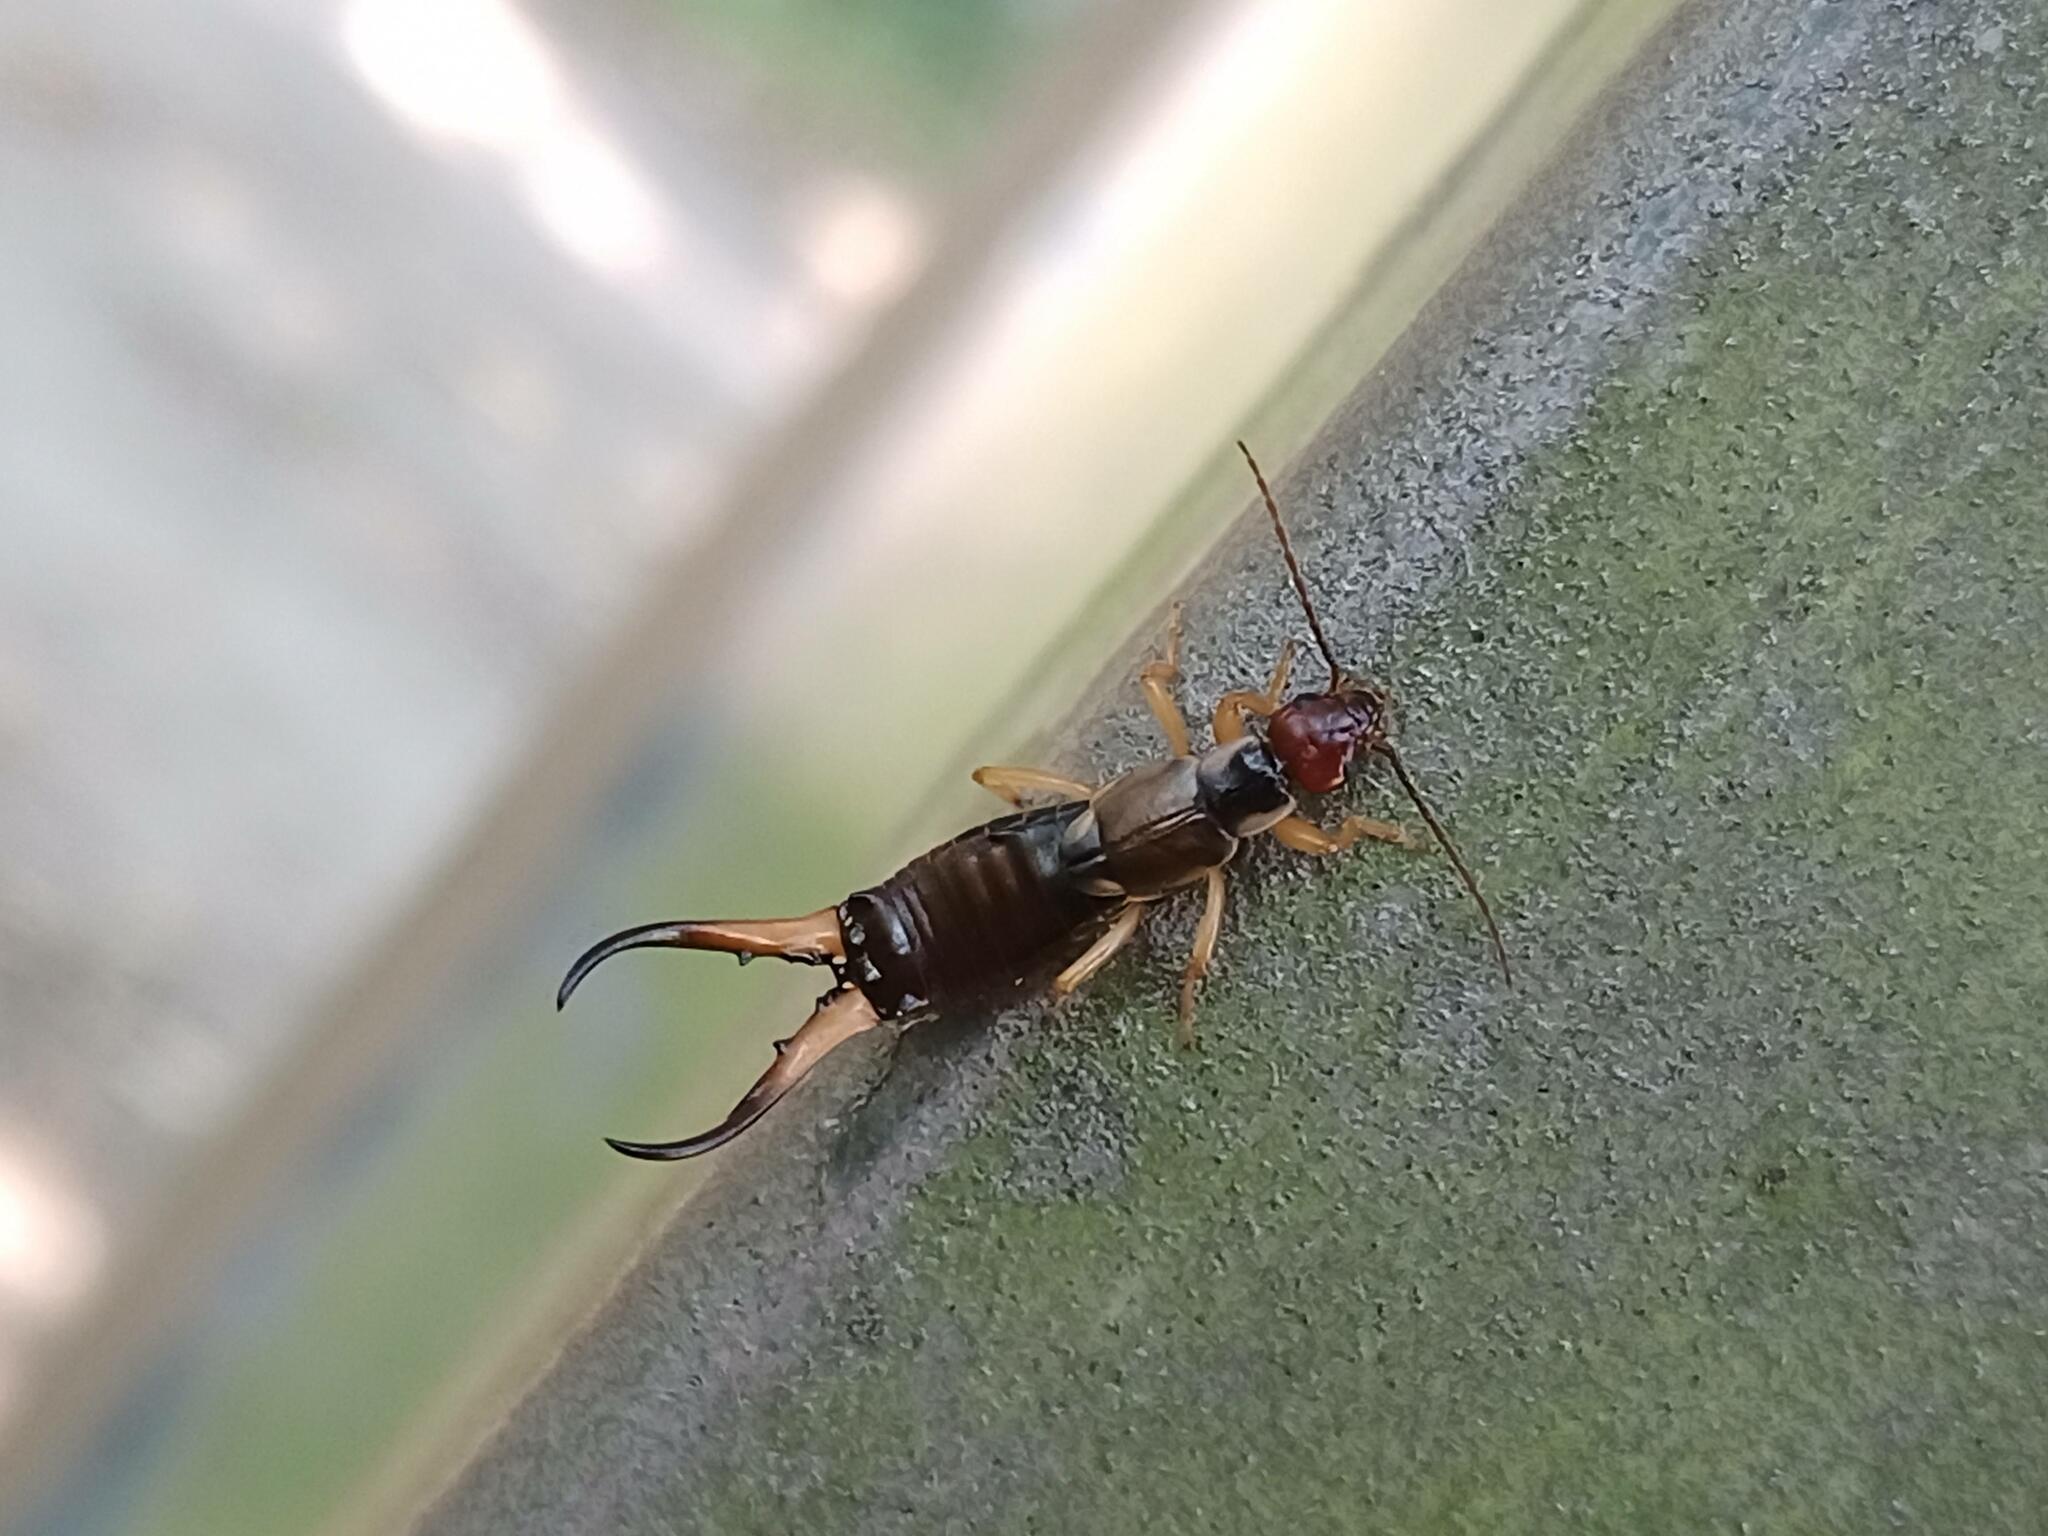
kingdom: Animalia
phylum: Arthropoda
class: Insecta
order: Dermaptera
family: Forficulidae
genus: Forficula
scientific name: Forficula
